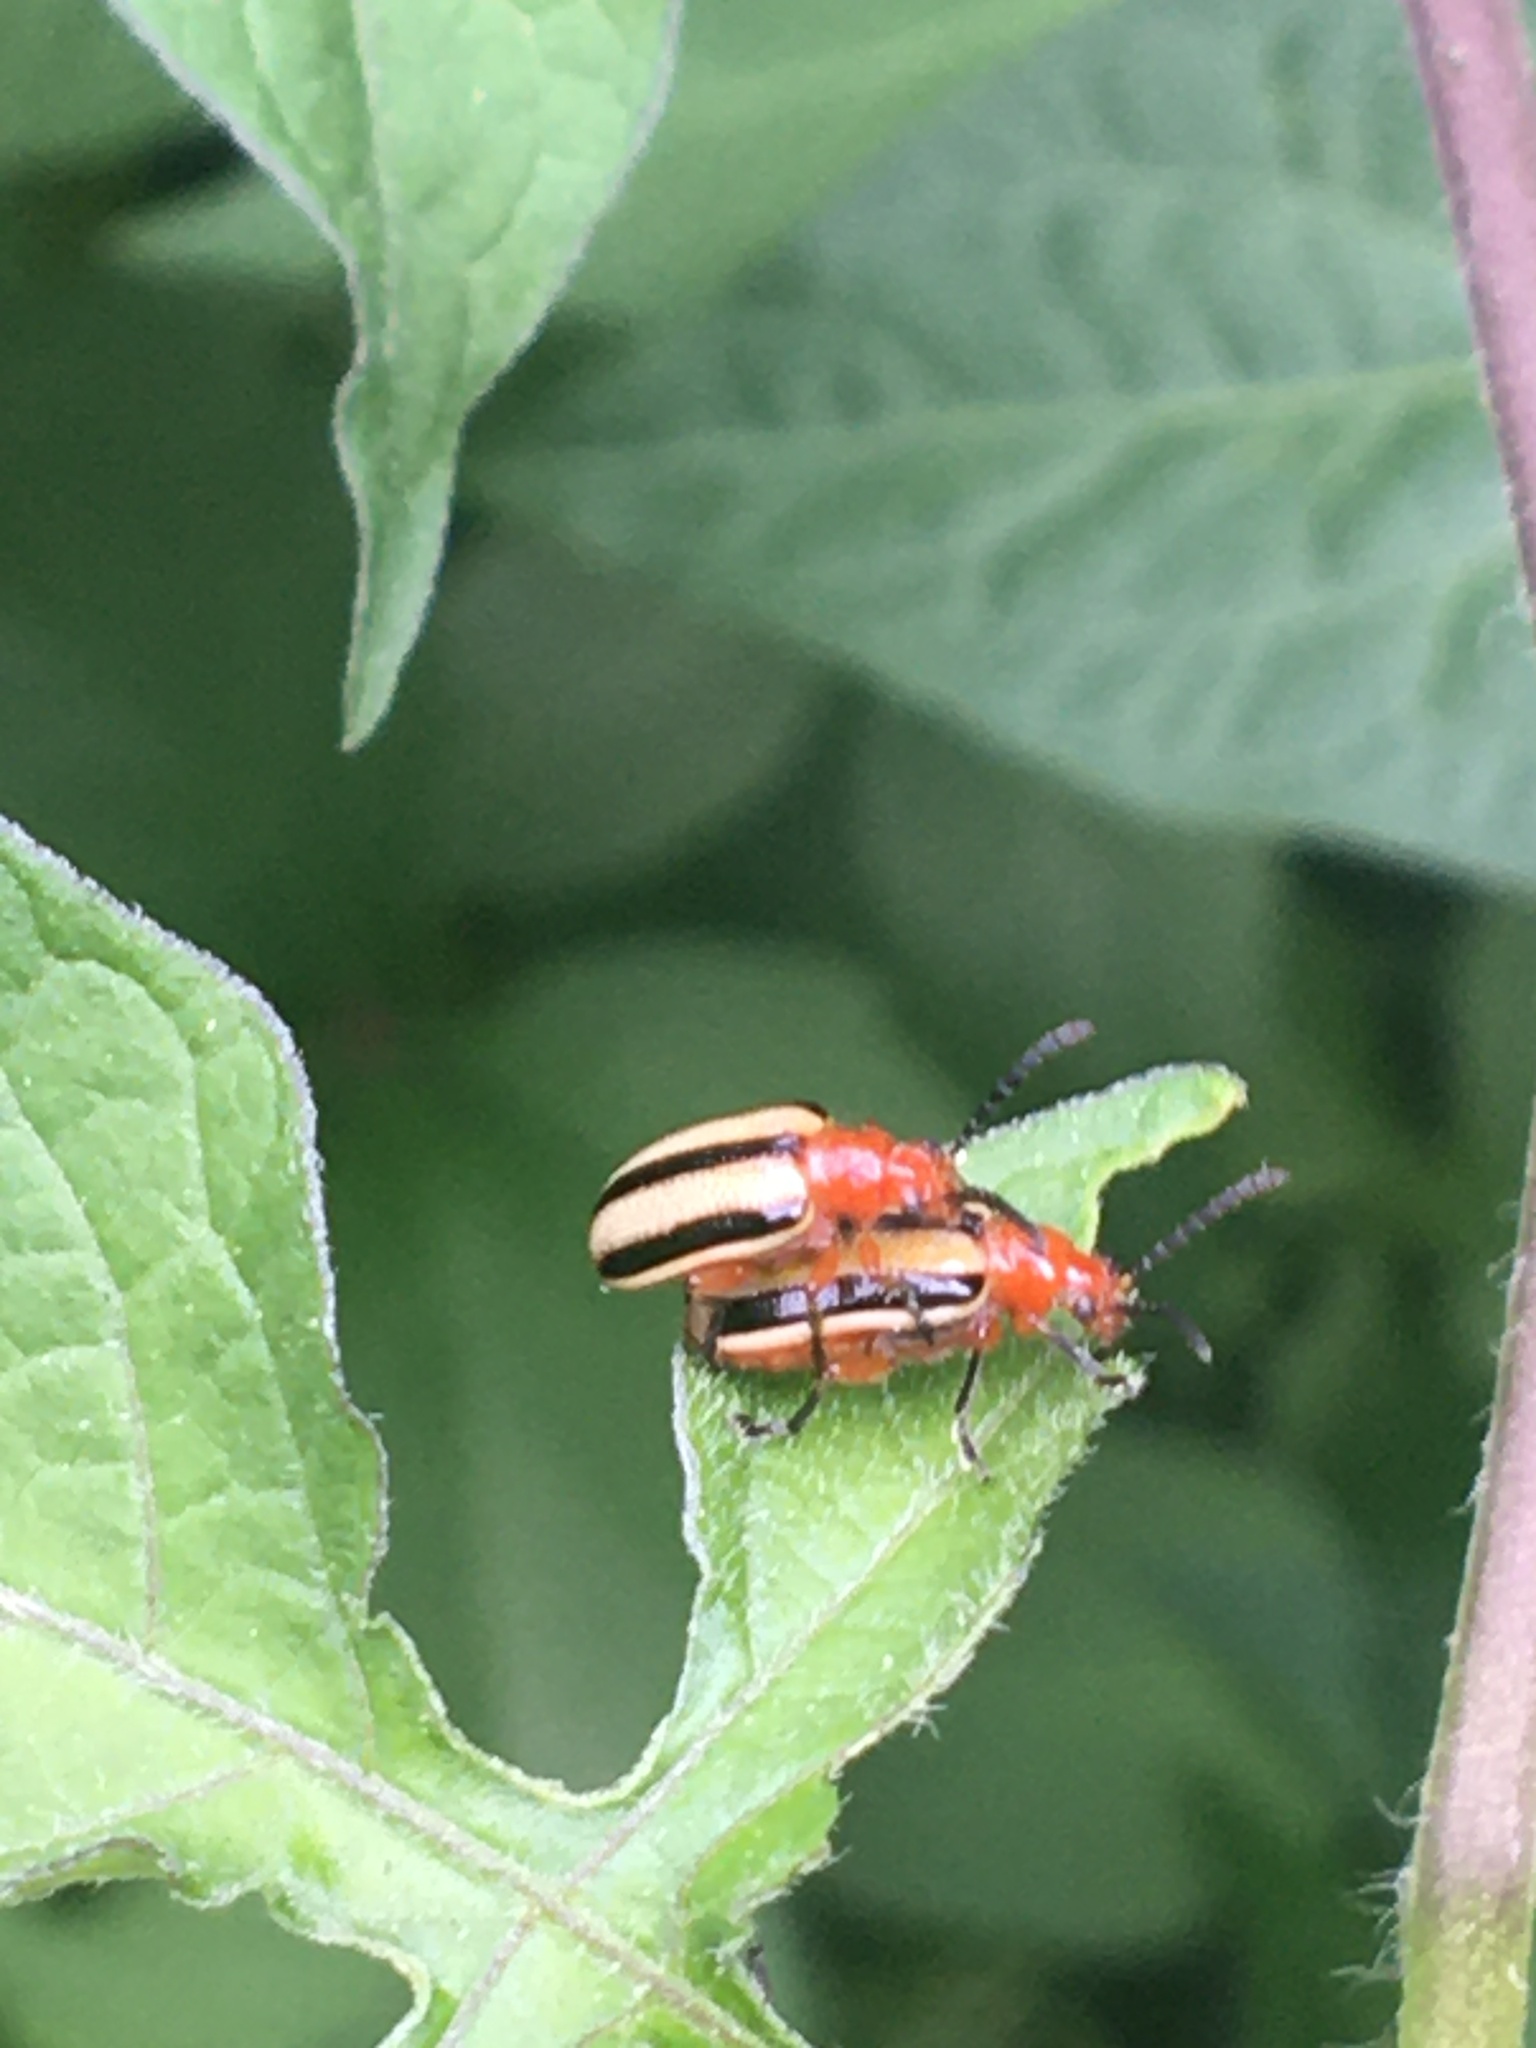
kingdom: Animalia
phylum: Arthropoda
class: Insecta
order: Coleoptera
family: Chrysomelidae
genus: Lema
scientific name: Lema daturaphila
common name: Leaf beetle
